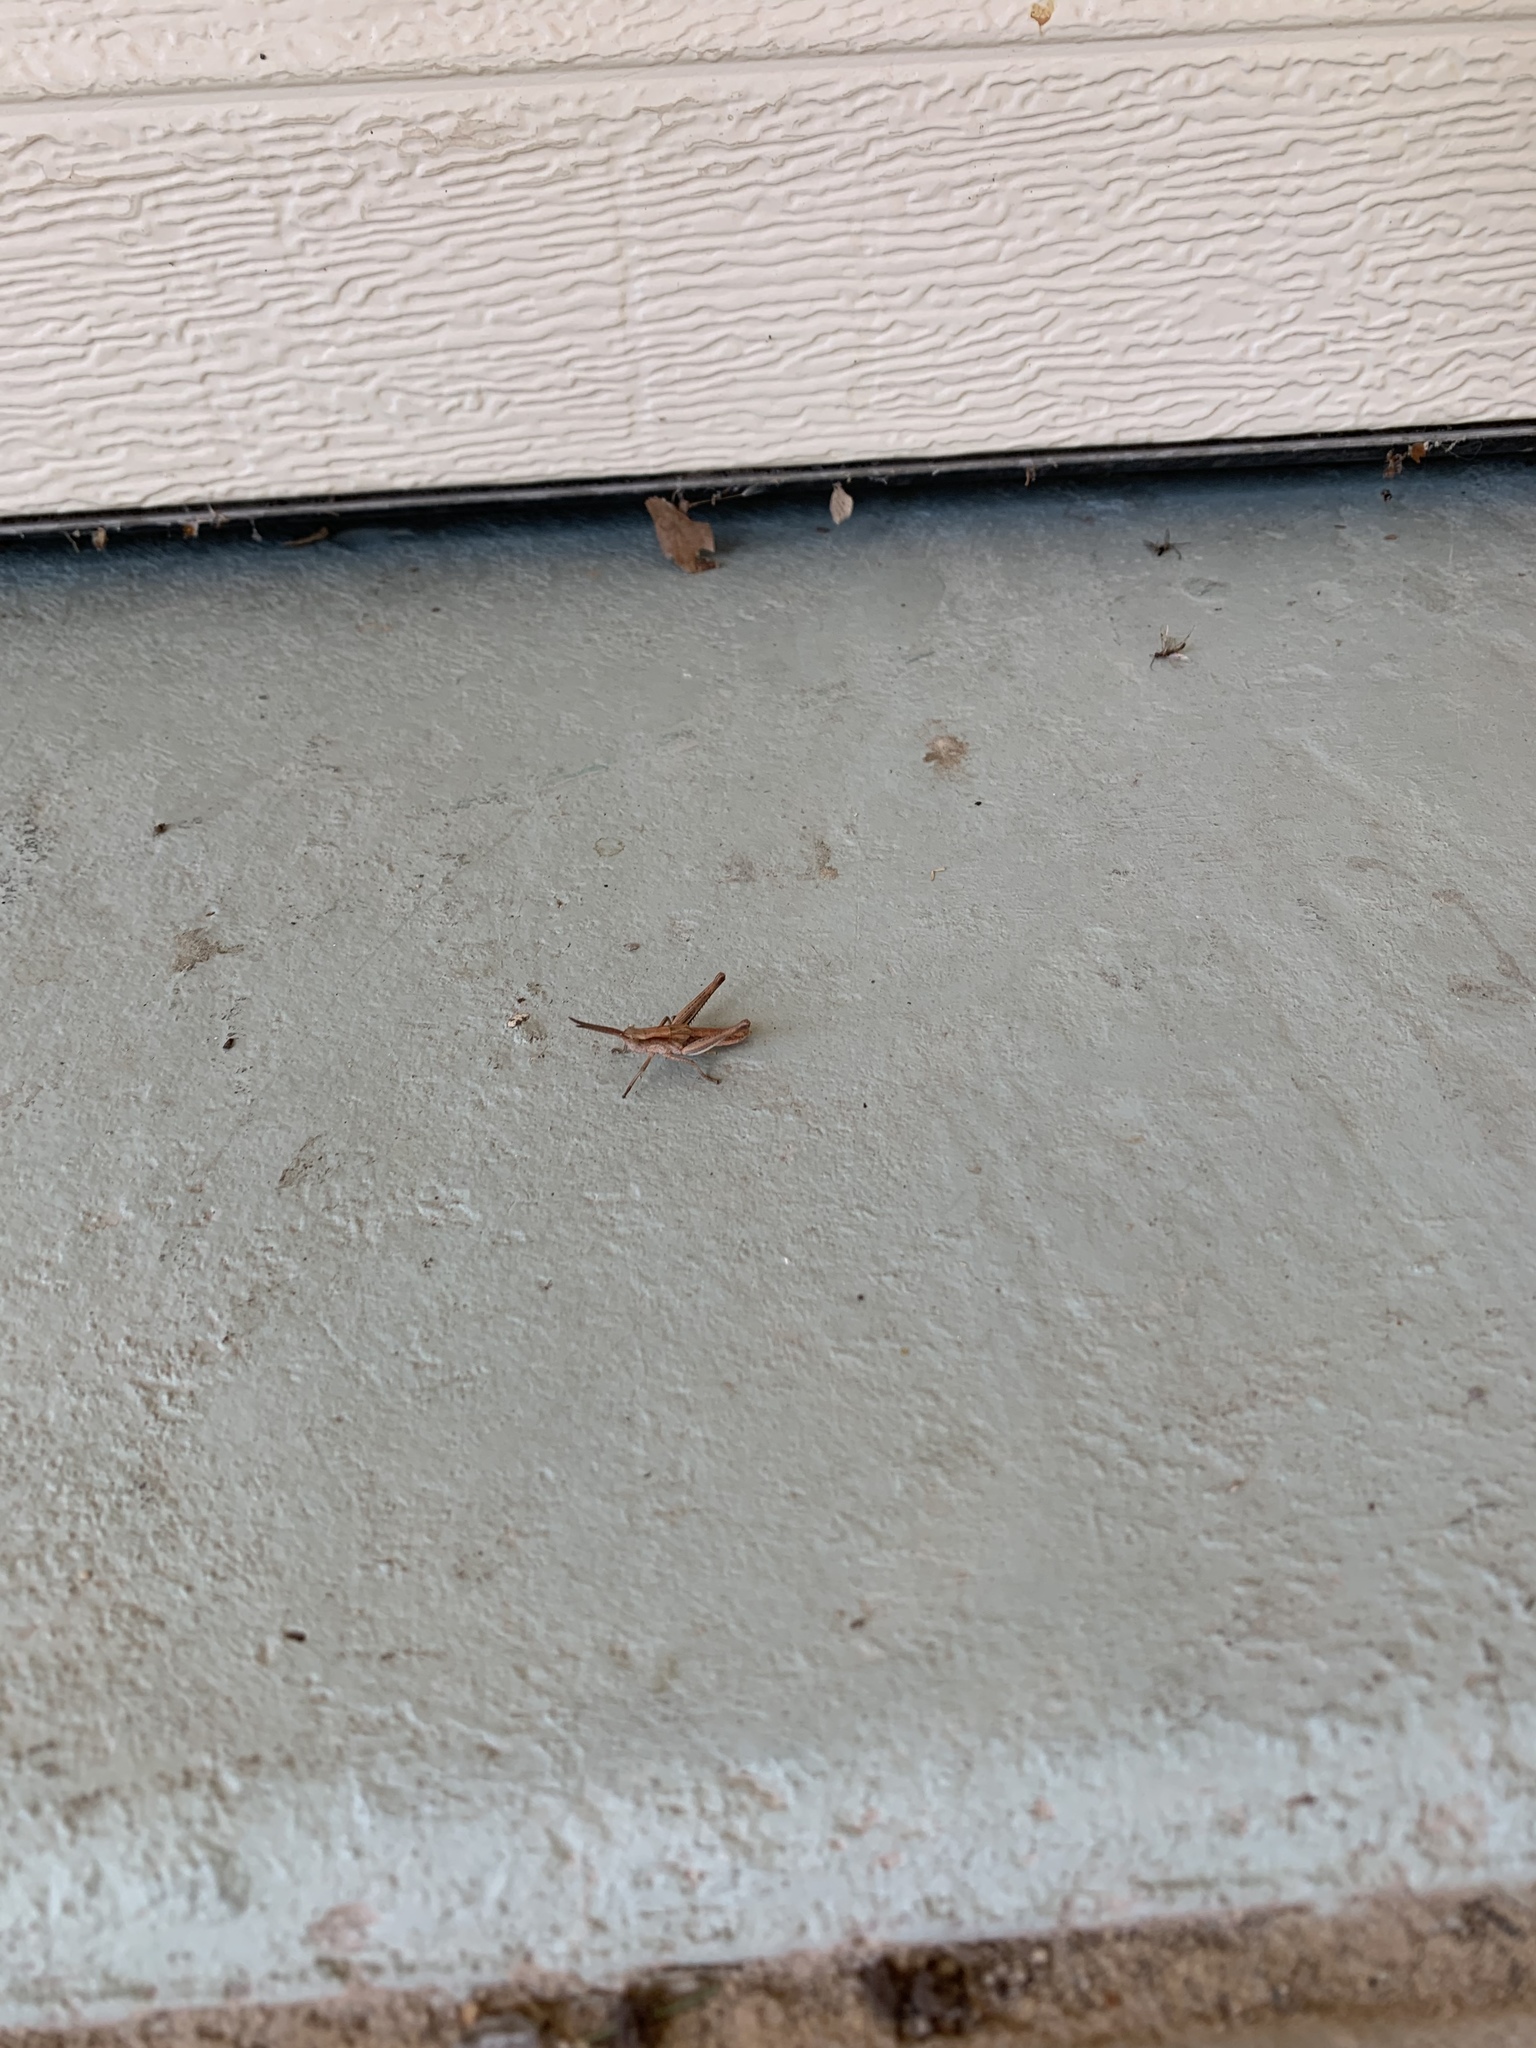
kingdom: Animalia
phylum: Arthropoda
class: Insecta
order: Orthoptera
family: Acrididae
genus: Chloealtis
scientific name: Chloealtis abdominalis
